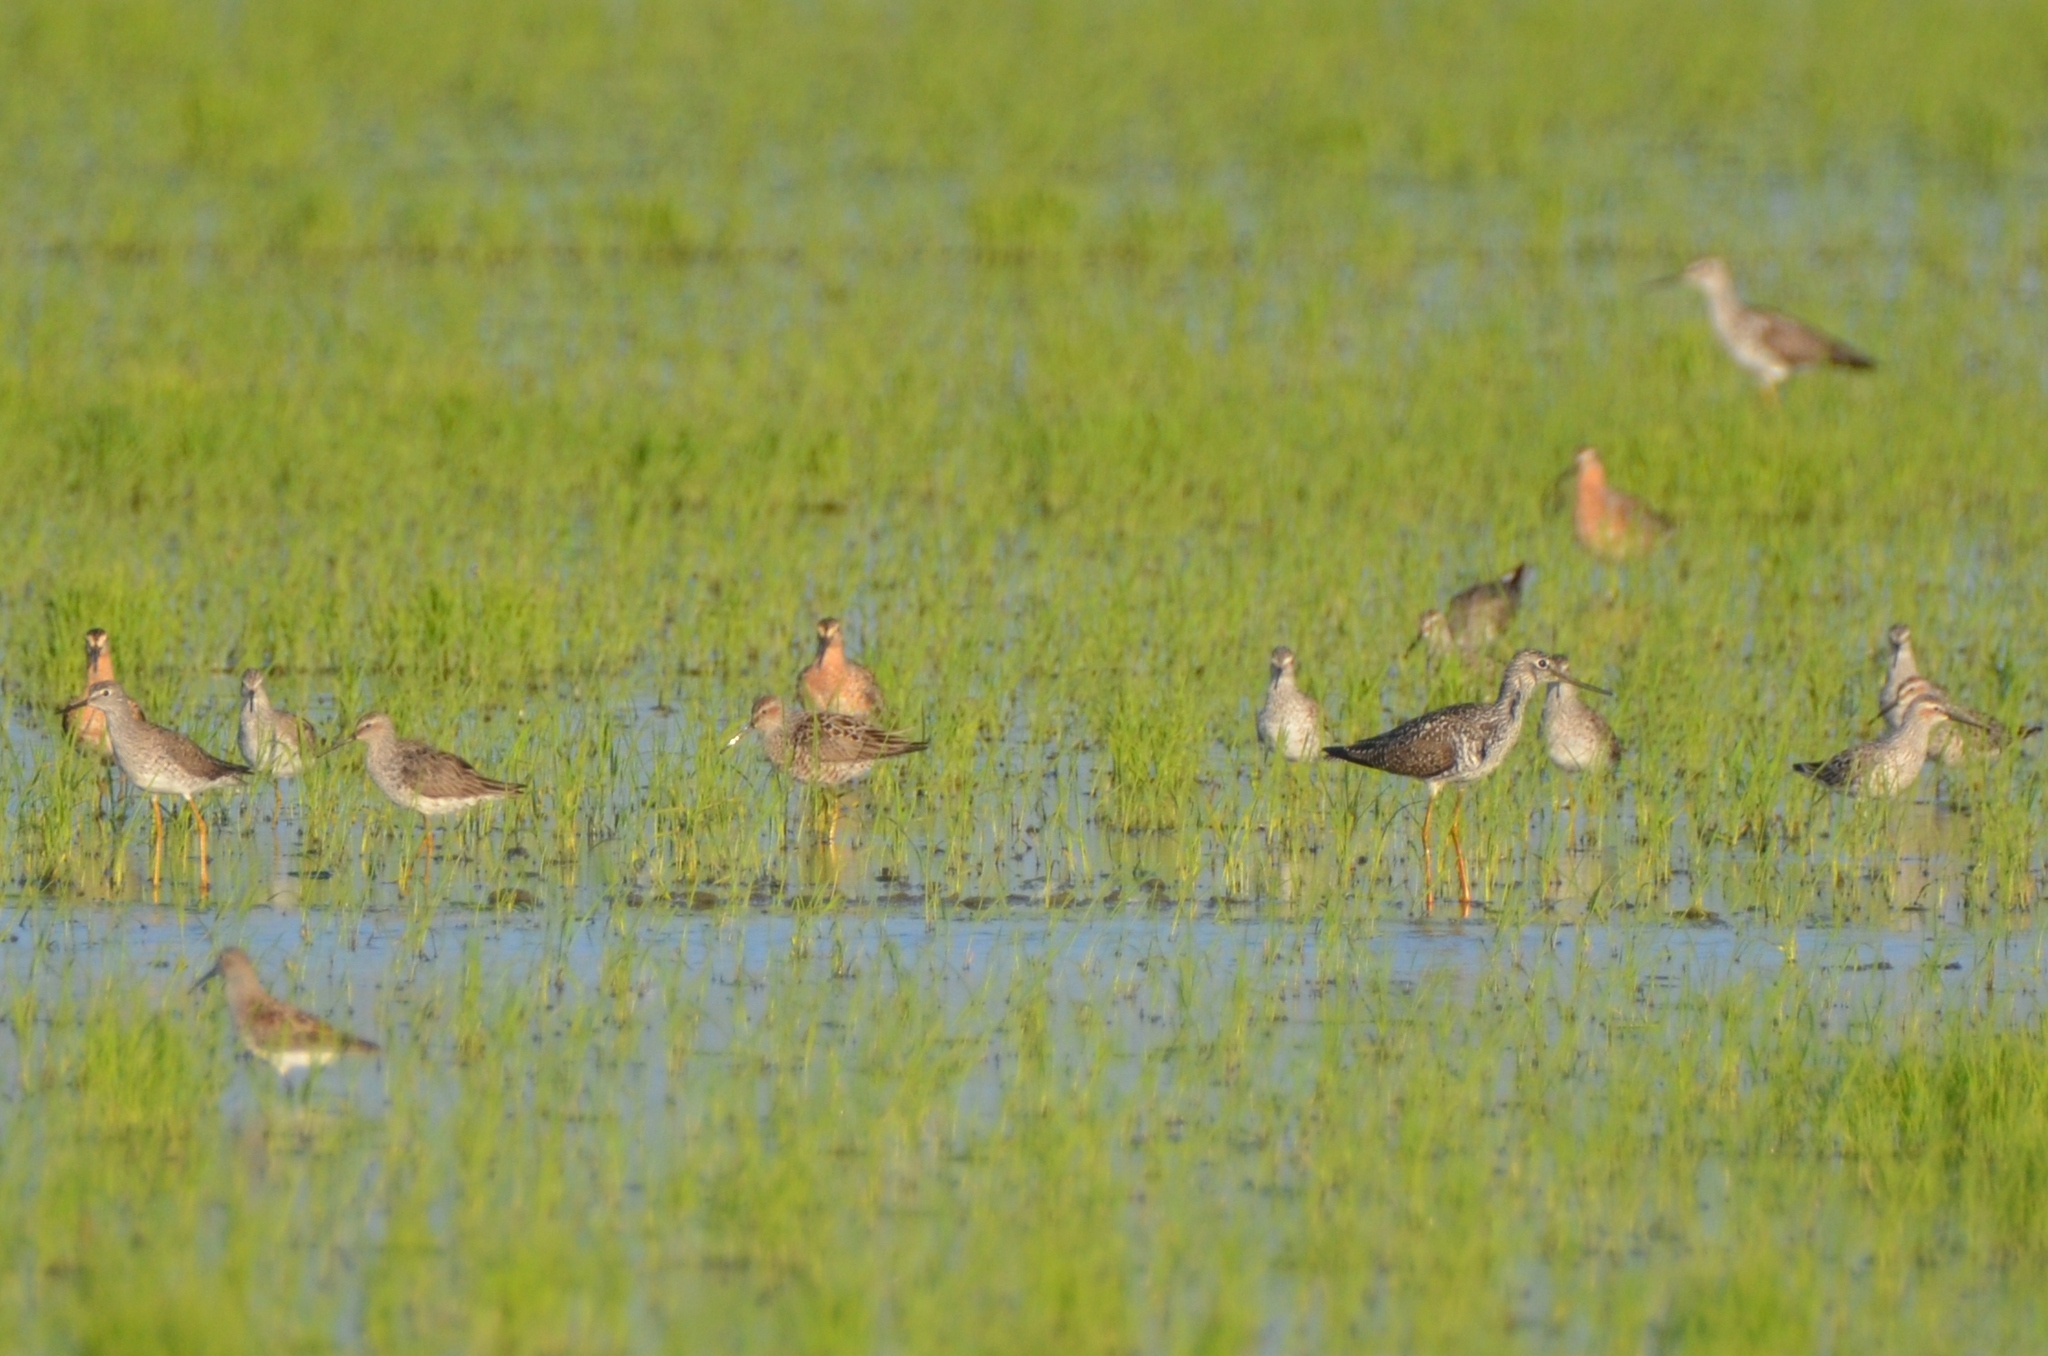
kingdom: Animalia
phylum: Chordata
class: Aves
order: Charadriiformes
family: Scolopacidae
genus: Calidris
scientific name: Calidris himantopus
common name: Stilt sandpiper
